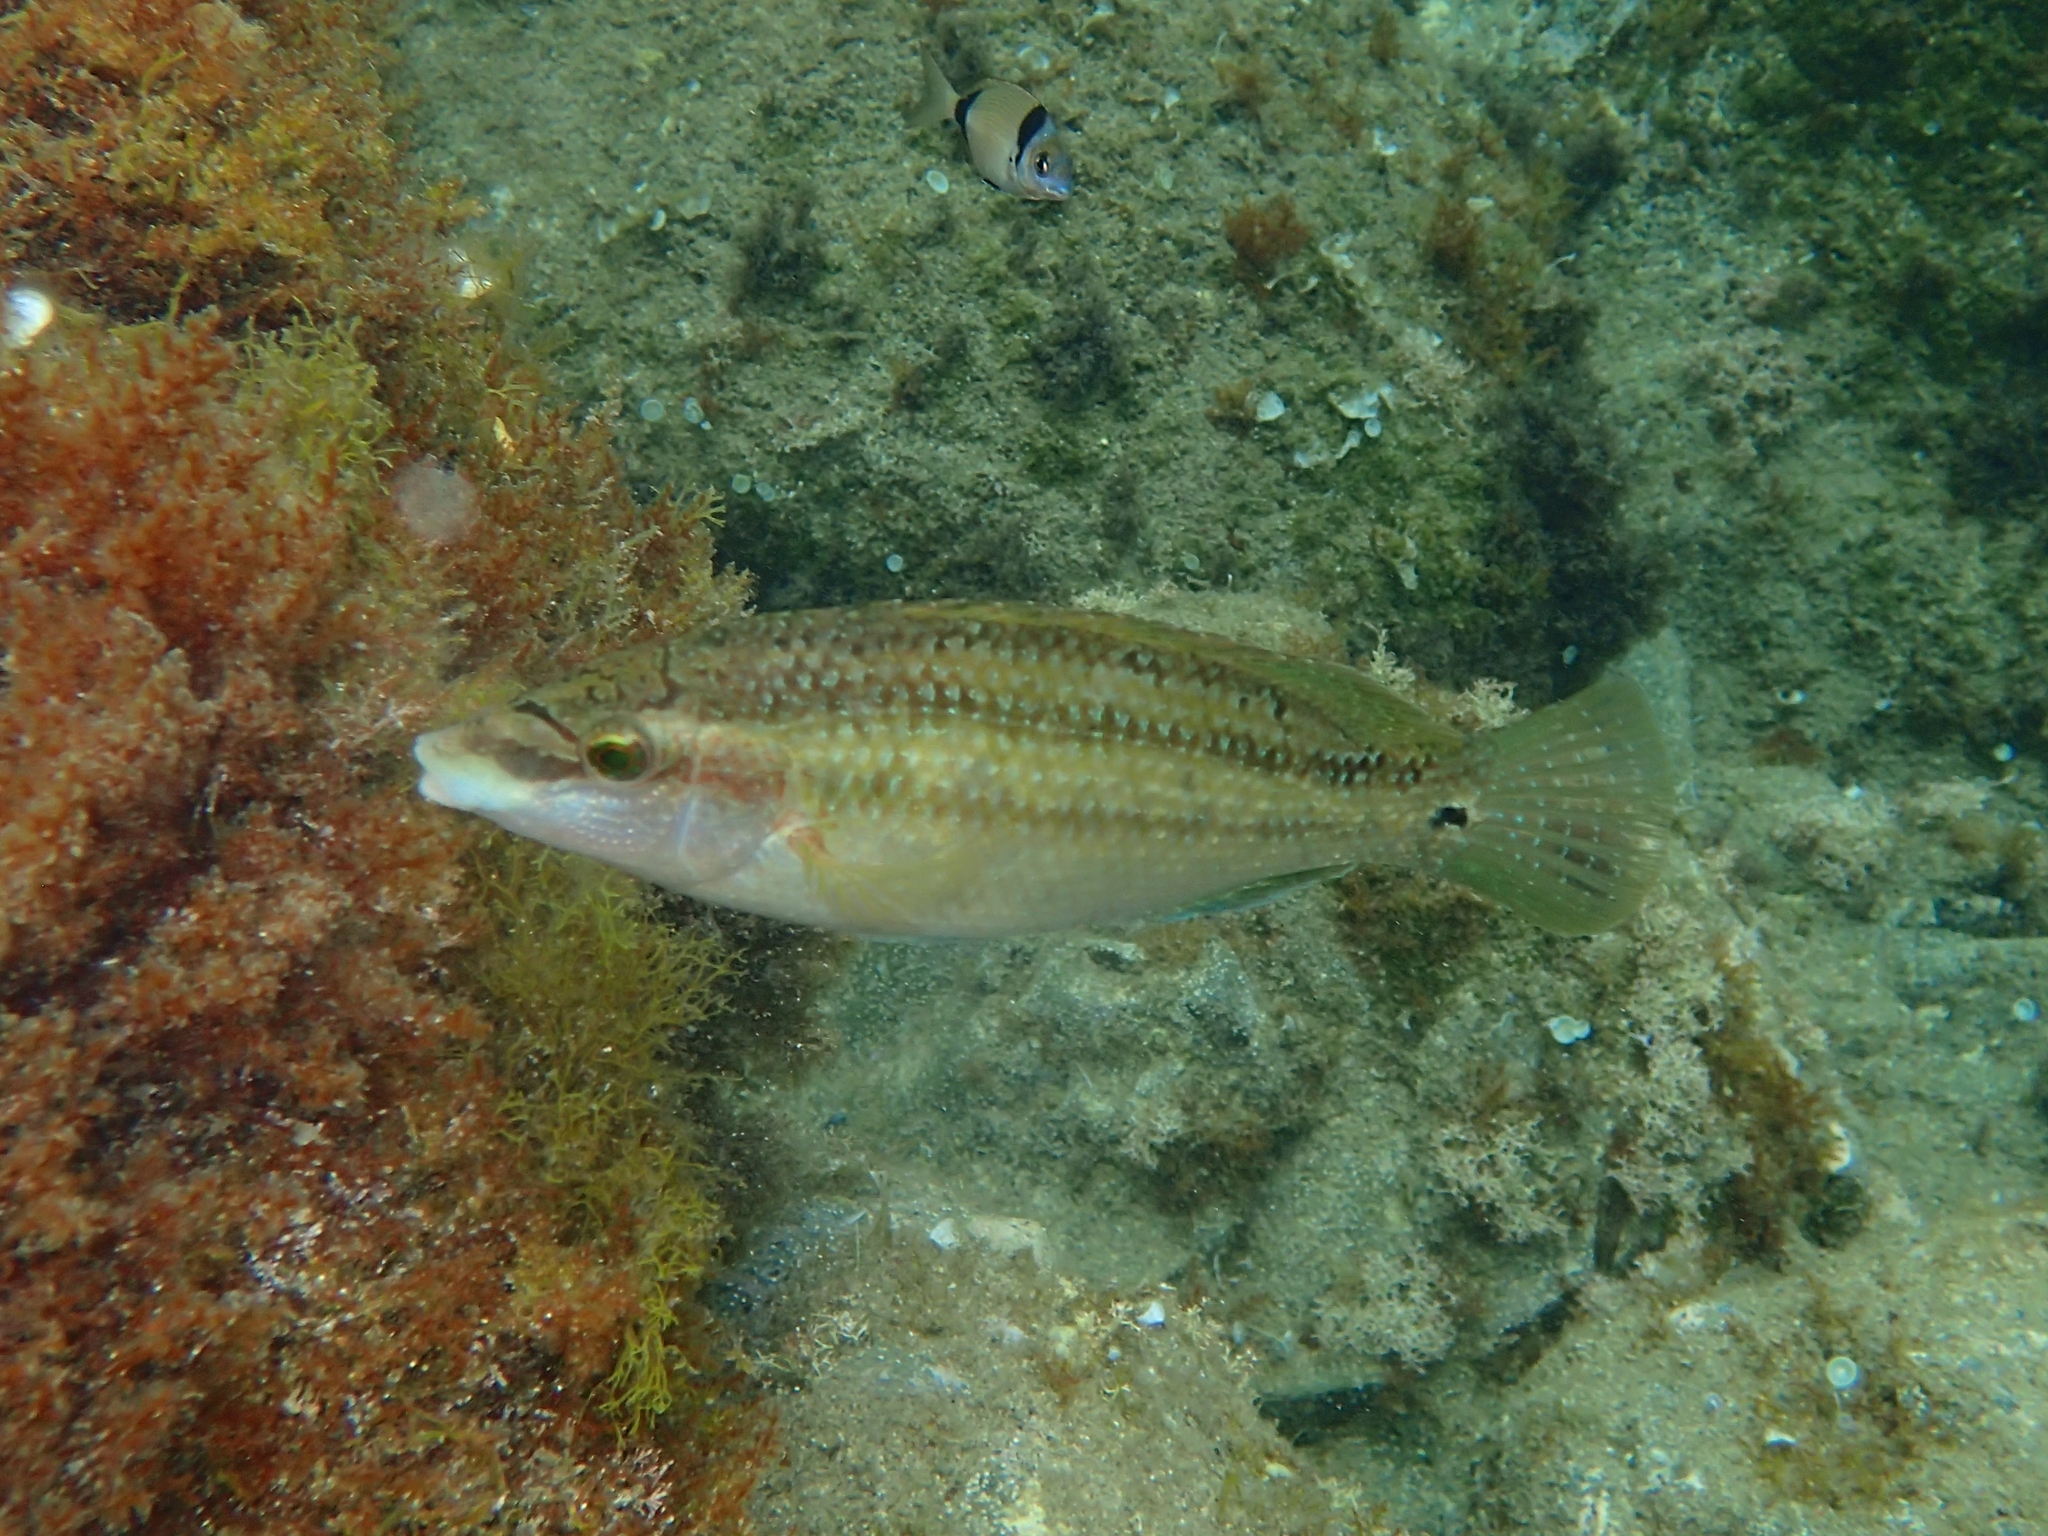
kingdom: Animalia
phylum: Chordata
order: Perciformes
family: Labridae
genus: Symphodus
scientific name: Symphodus tinca
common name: Peacock wrasse
